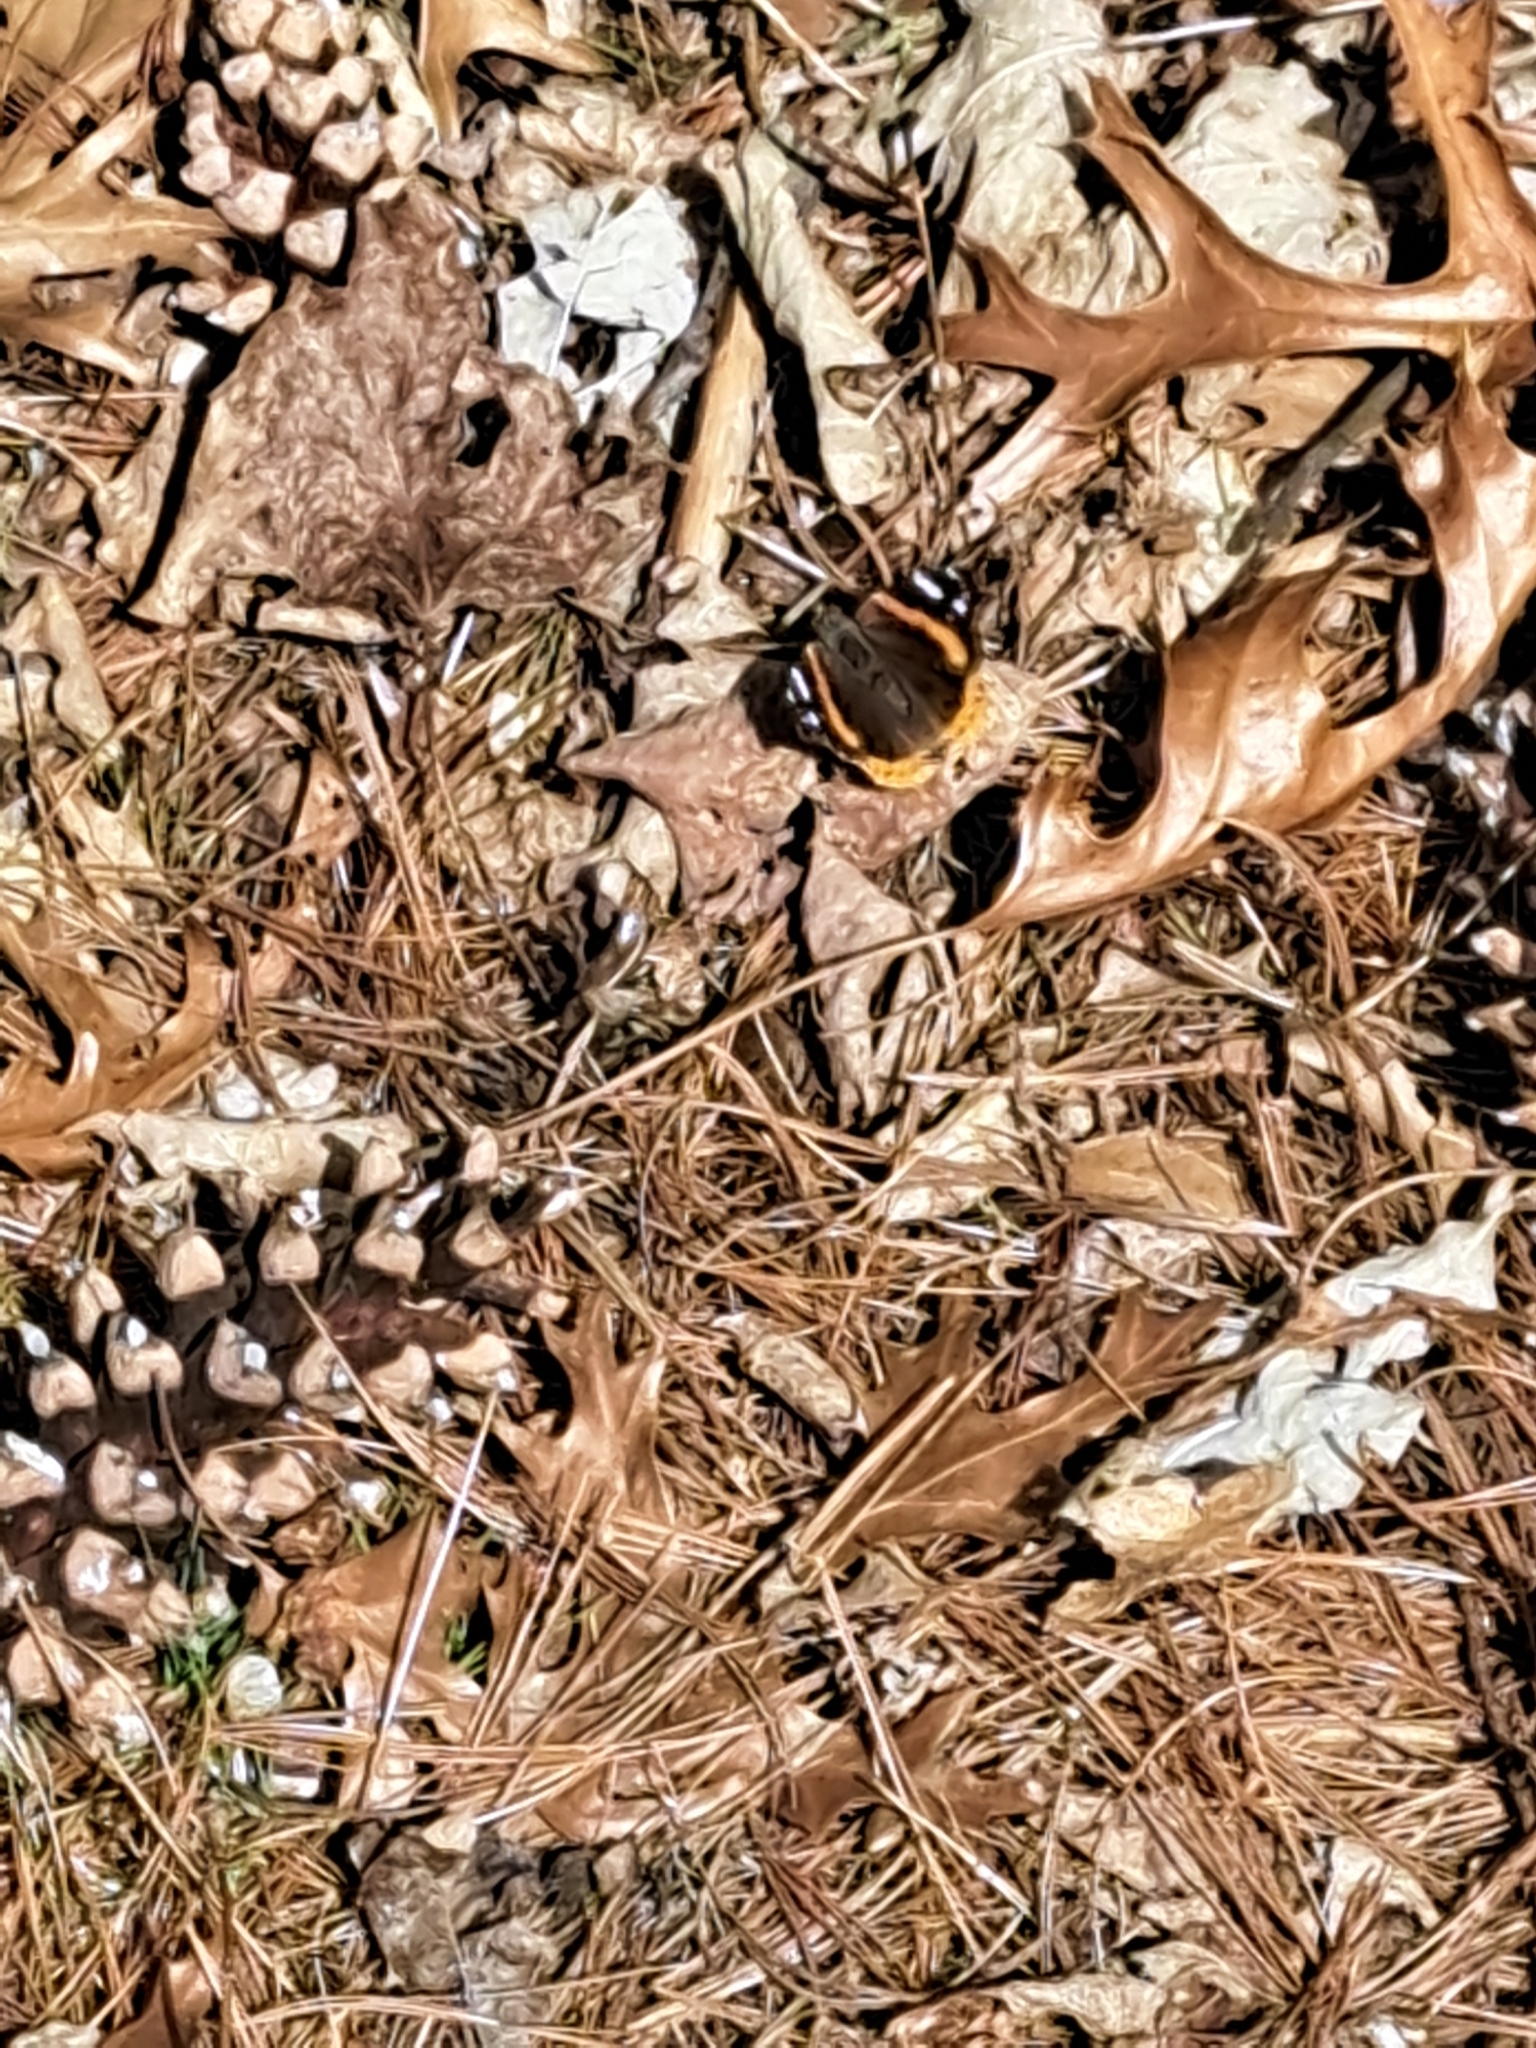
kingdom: Animalia
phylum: Arthropoda
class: Insecta
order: Lepidoptera
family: Nymphalidae
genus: Vanessa
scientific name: Vanessa atalanta
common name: Red admiral
